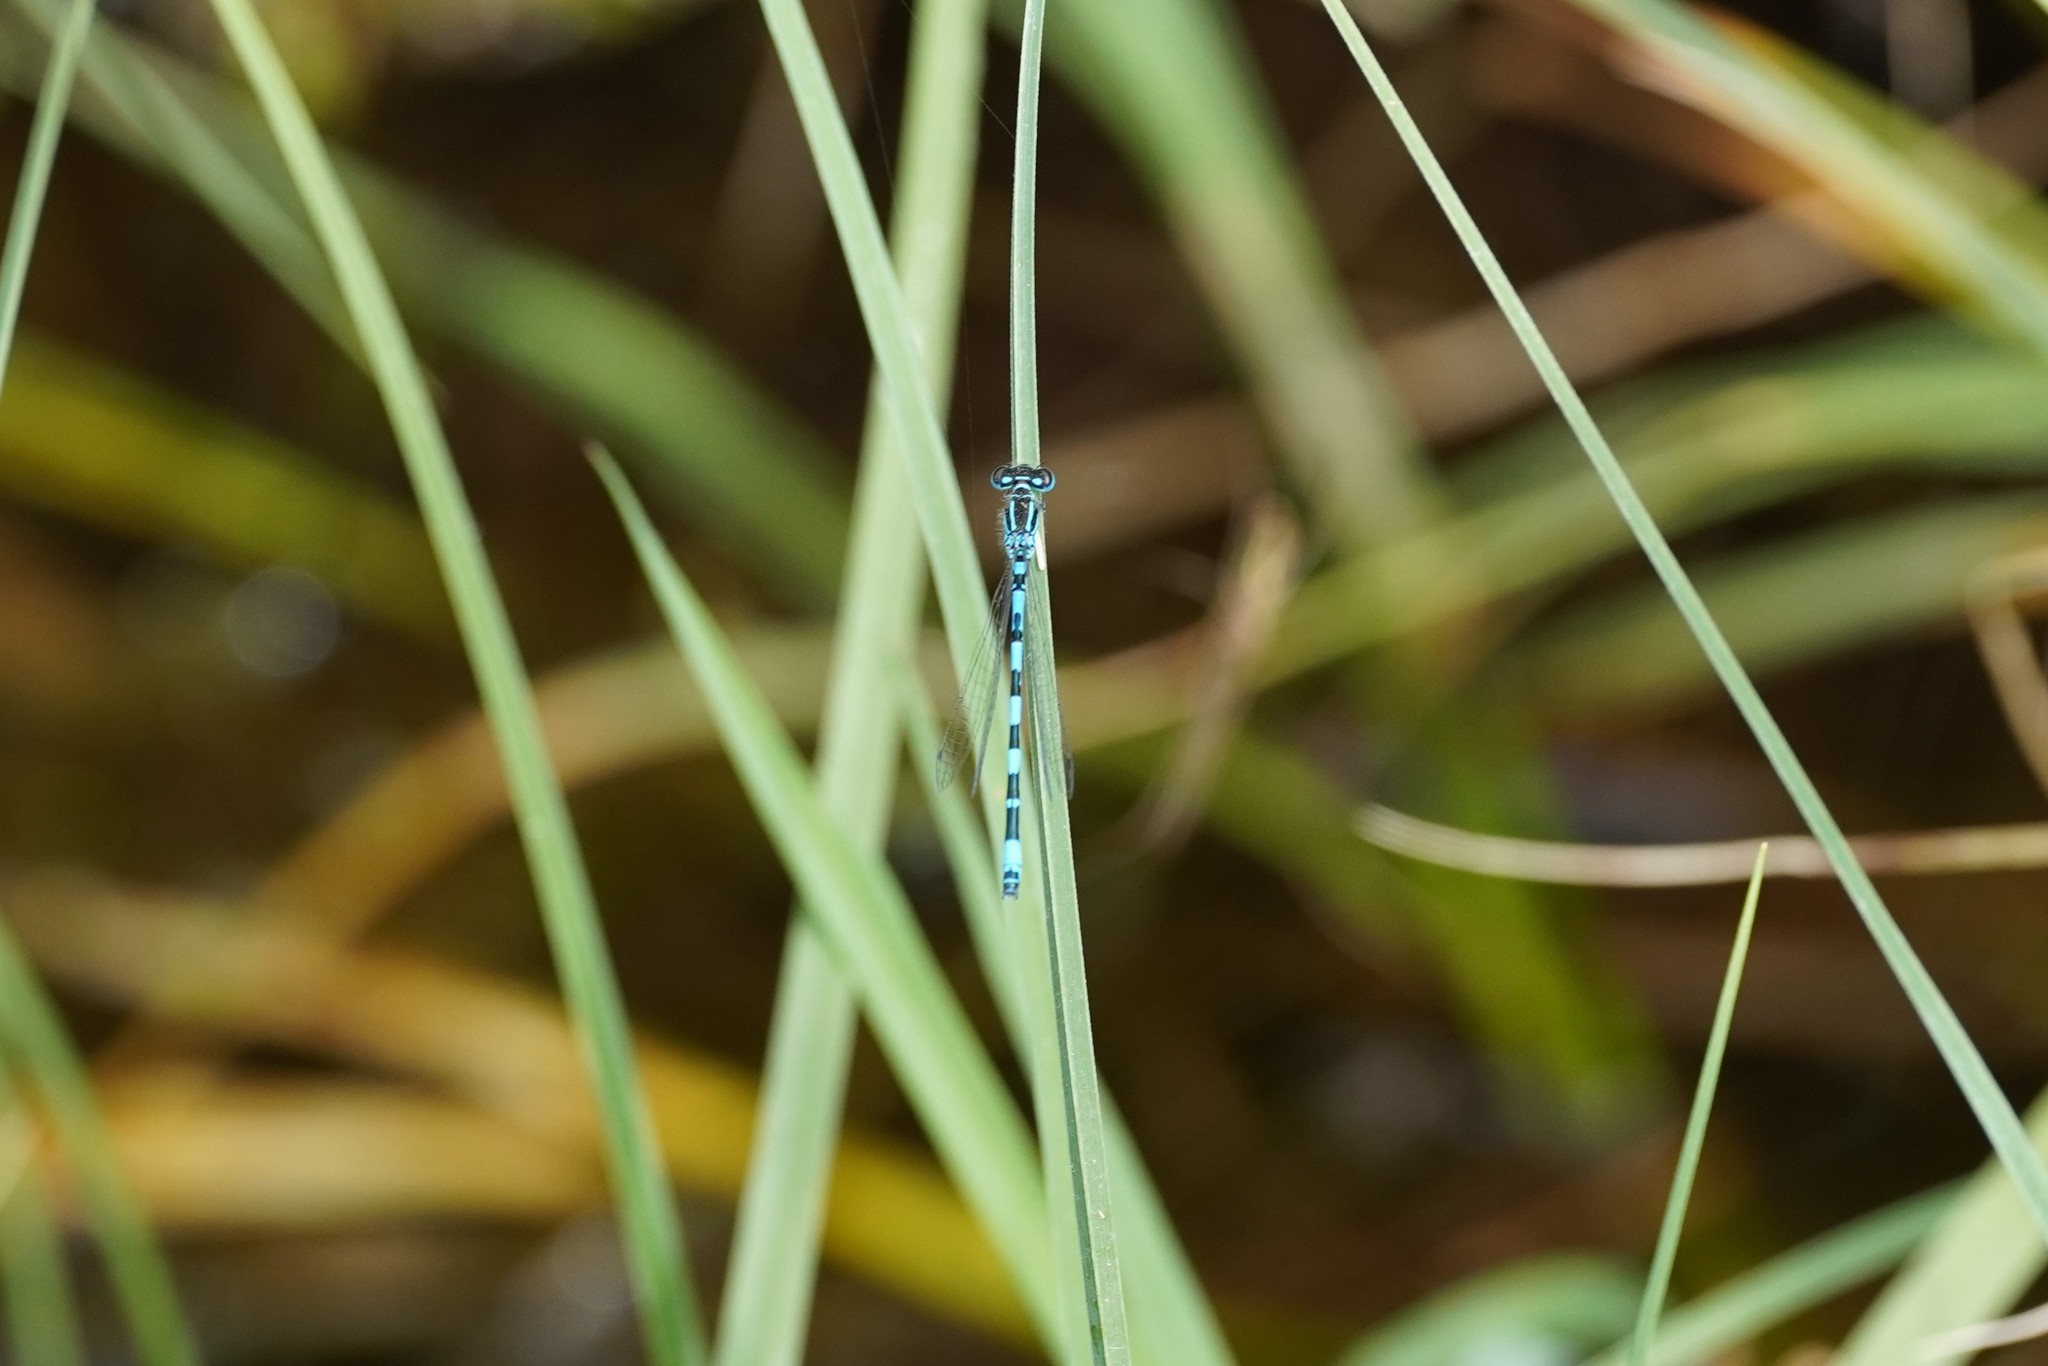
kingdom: Animalia
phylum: Arthropoda
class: Insecta
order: Odonata
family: Coenagrionidae
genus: Coenagrion
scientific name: Coenagrion mercuriale
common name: Southern damselfly
